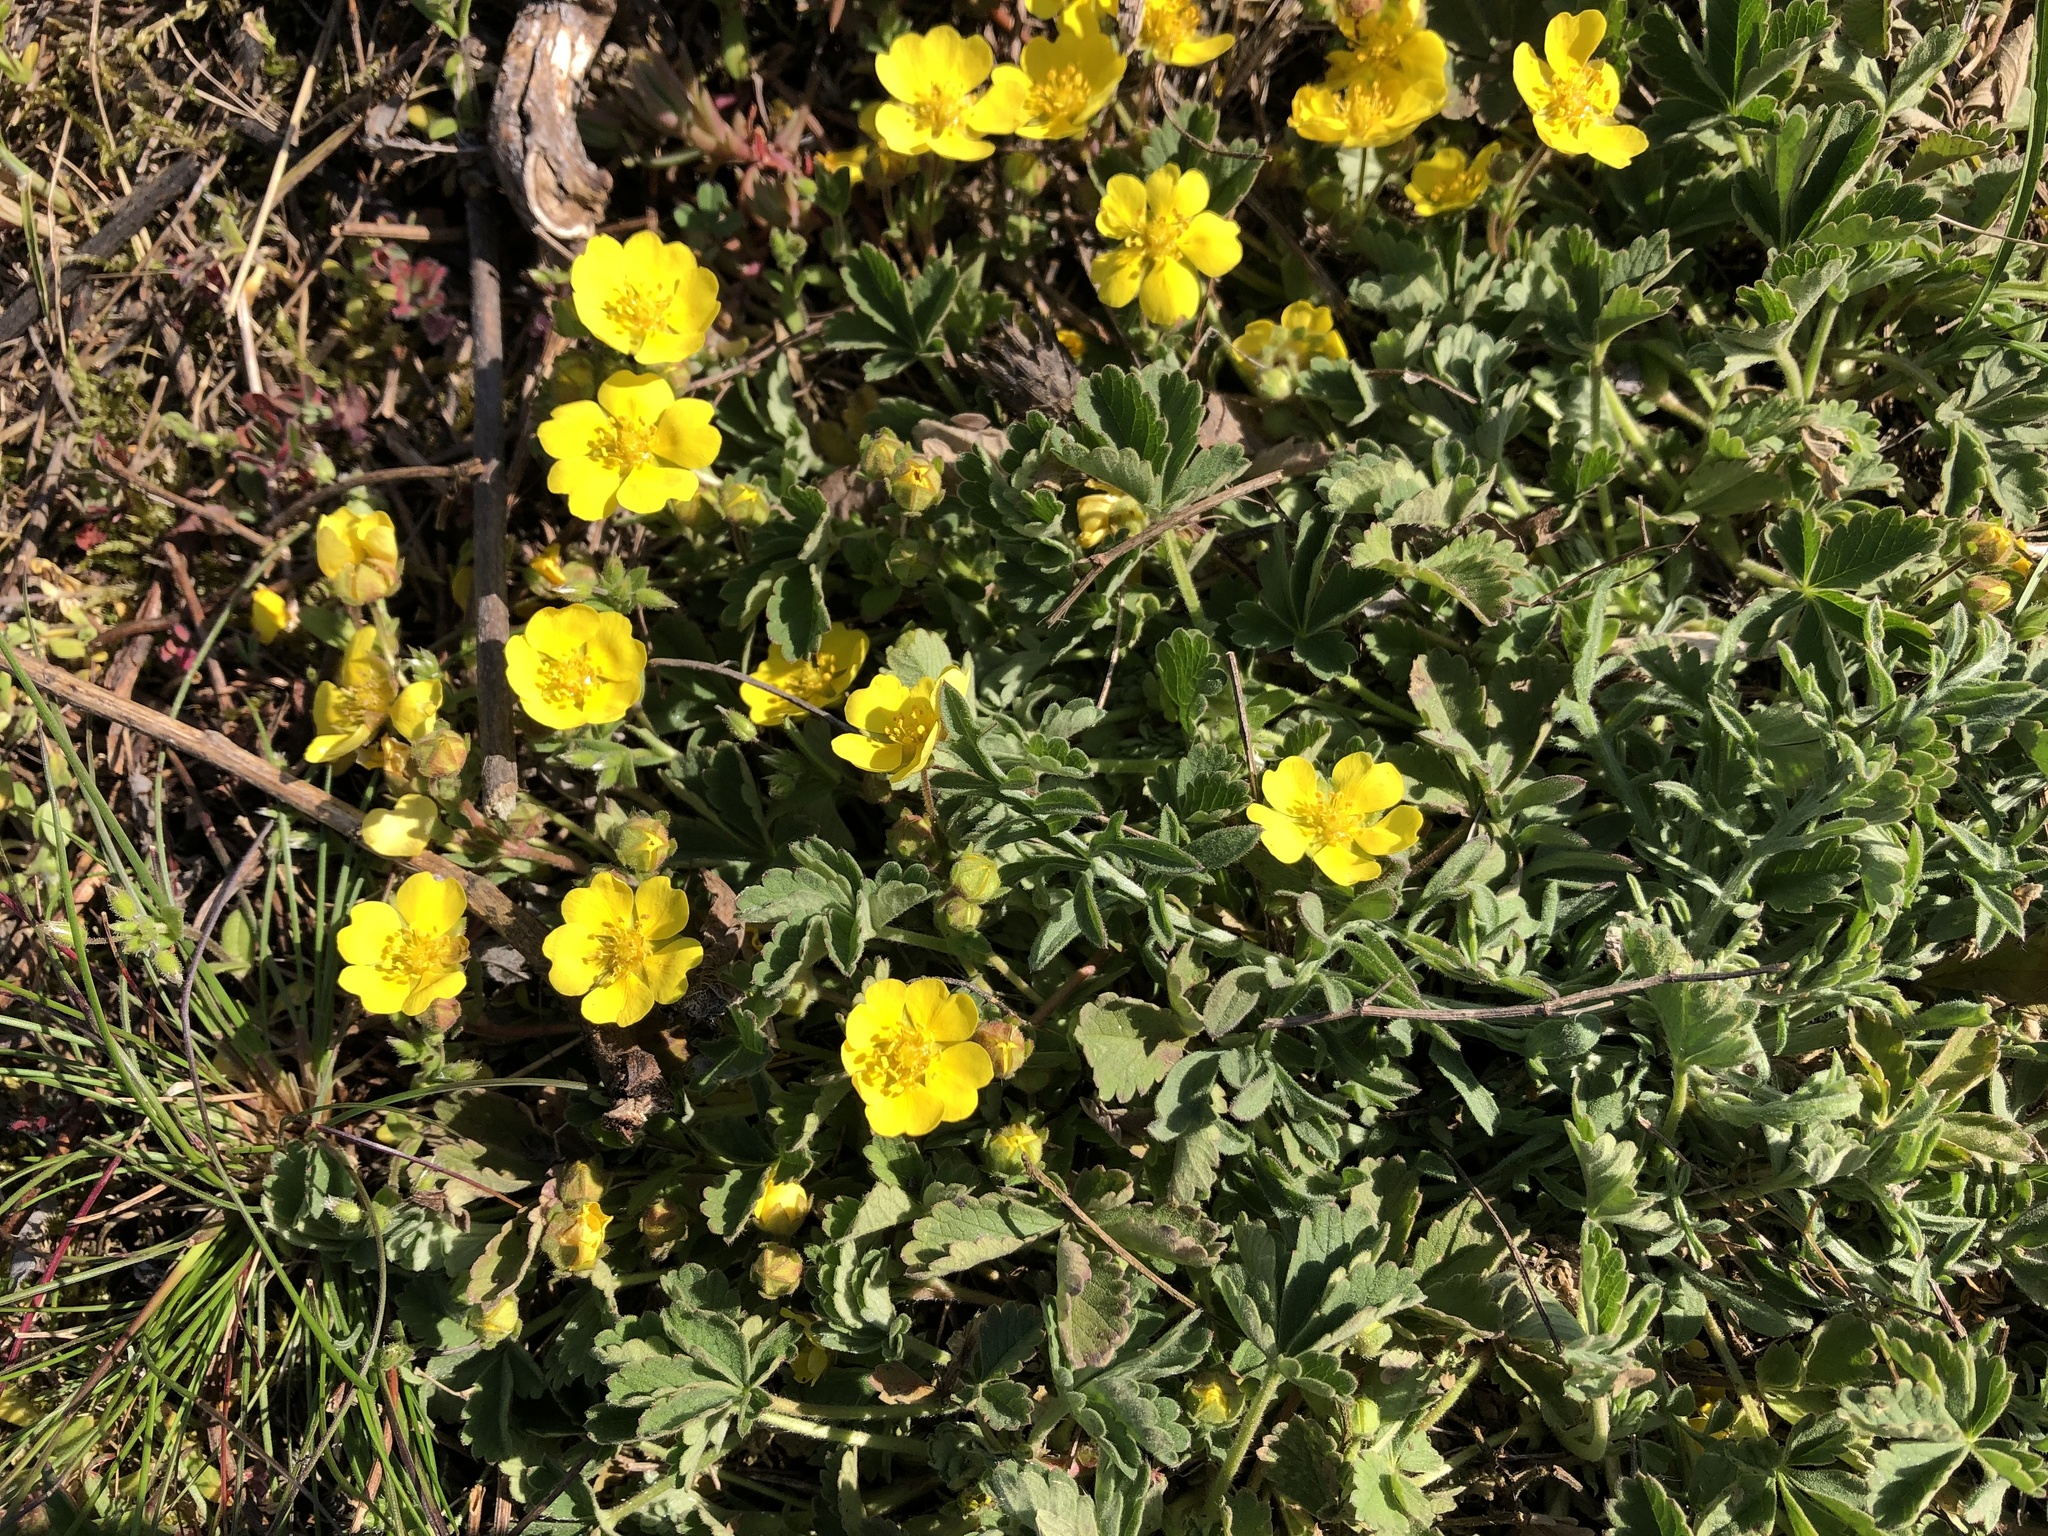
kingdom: Plantae
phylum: Tracheophyta
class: Magnoliopsida
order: Rosales
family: Rosaceae
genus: Potentilla
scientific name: Potentilla incana
